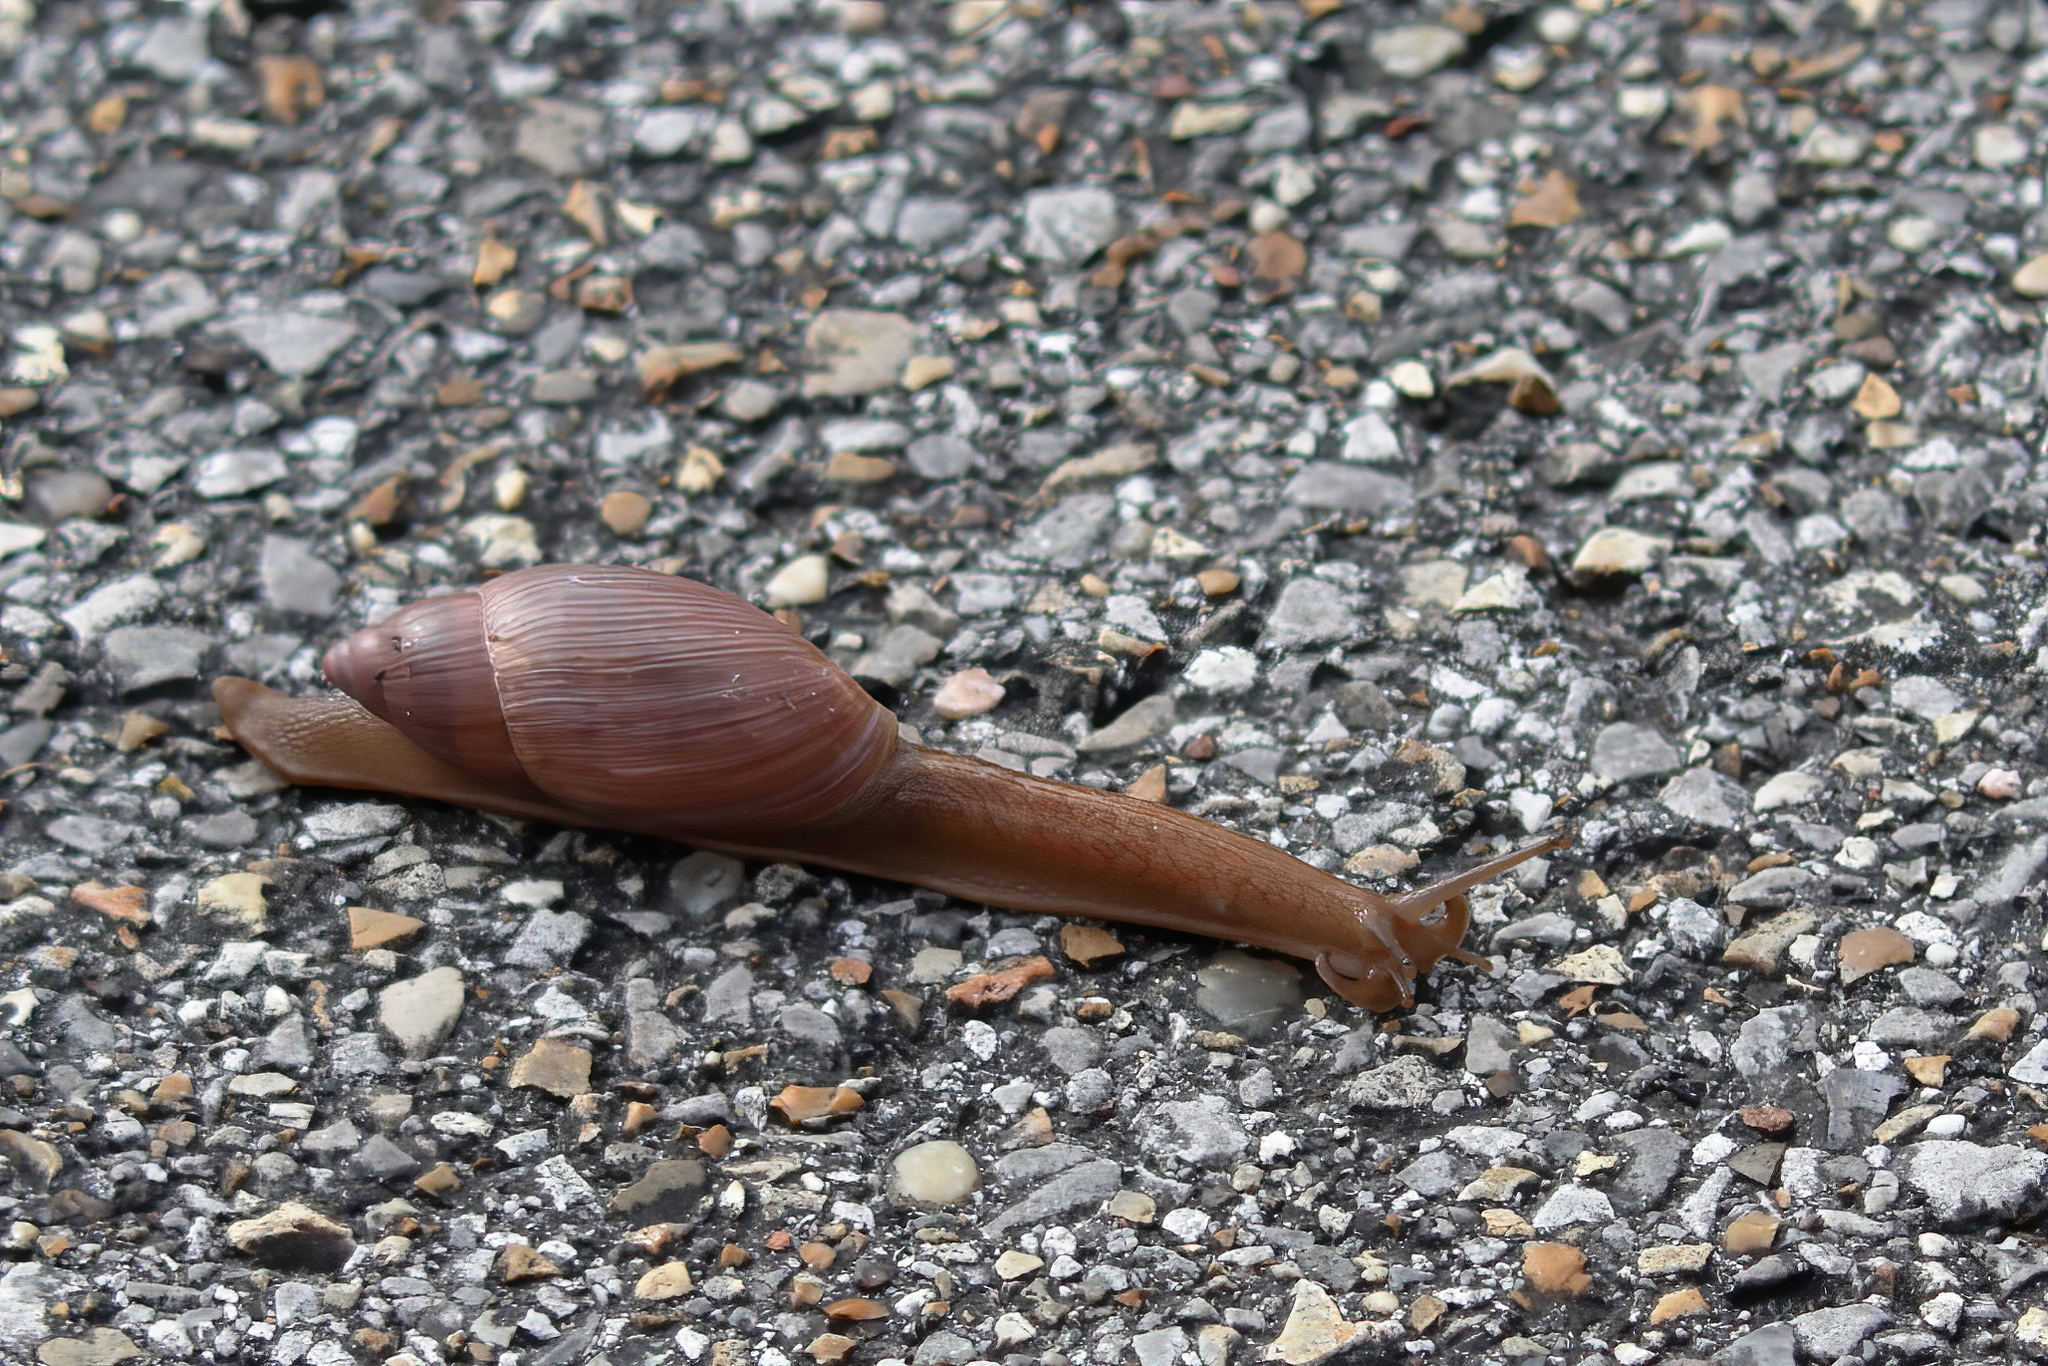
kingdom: Animalia
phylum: Mollusca
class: Gastropoda
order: Stylommatophora
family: Spiraxidae
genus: Euglandina
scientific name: Euglandina rosea
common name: Rosy wolfsnail
